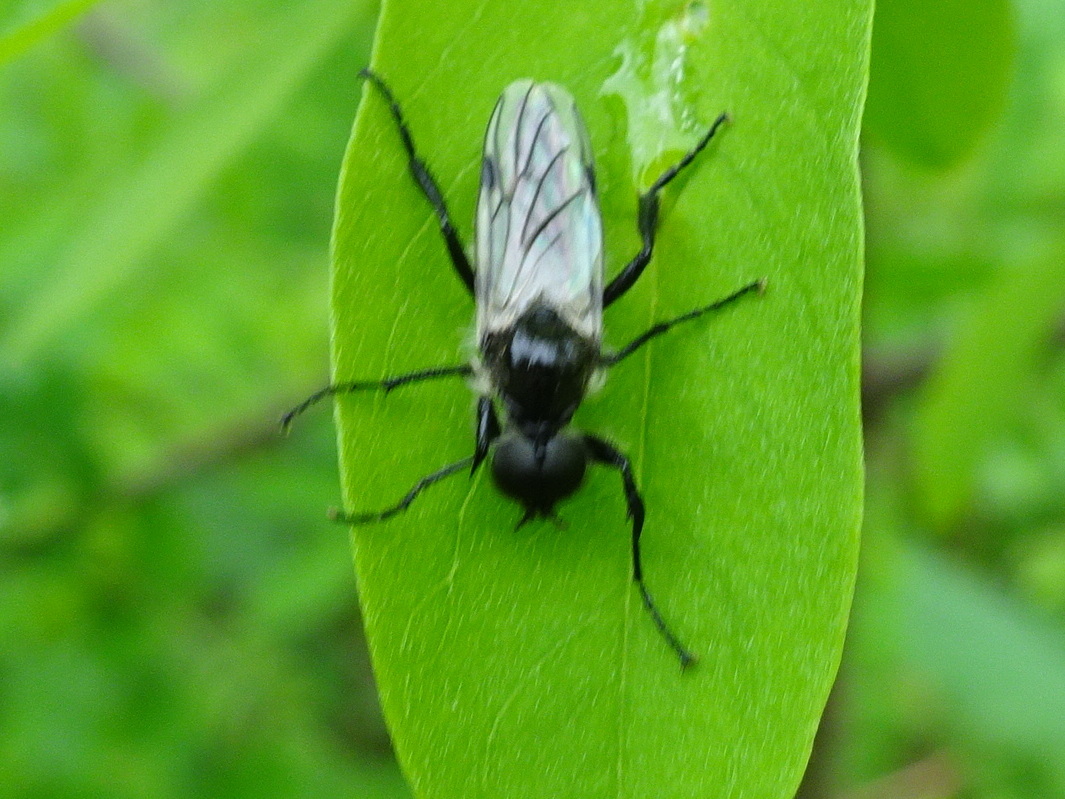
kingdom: Animalia
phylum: Arthropoda
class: Insecta
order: Diptera
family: Bibionidae
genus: Bibio
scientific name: Bibio albipennis
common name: White-winged march fly
